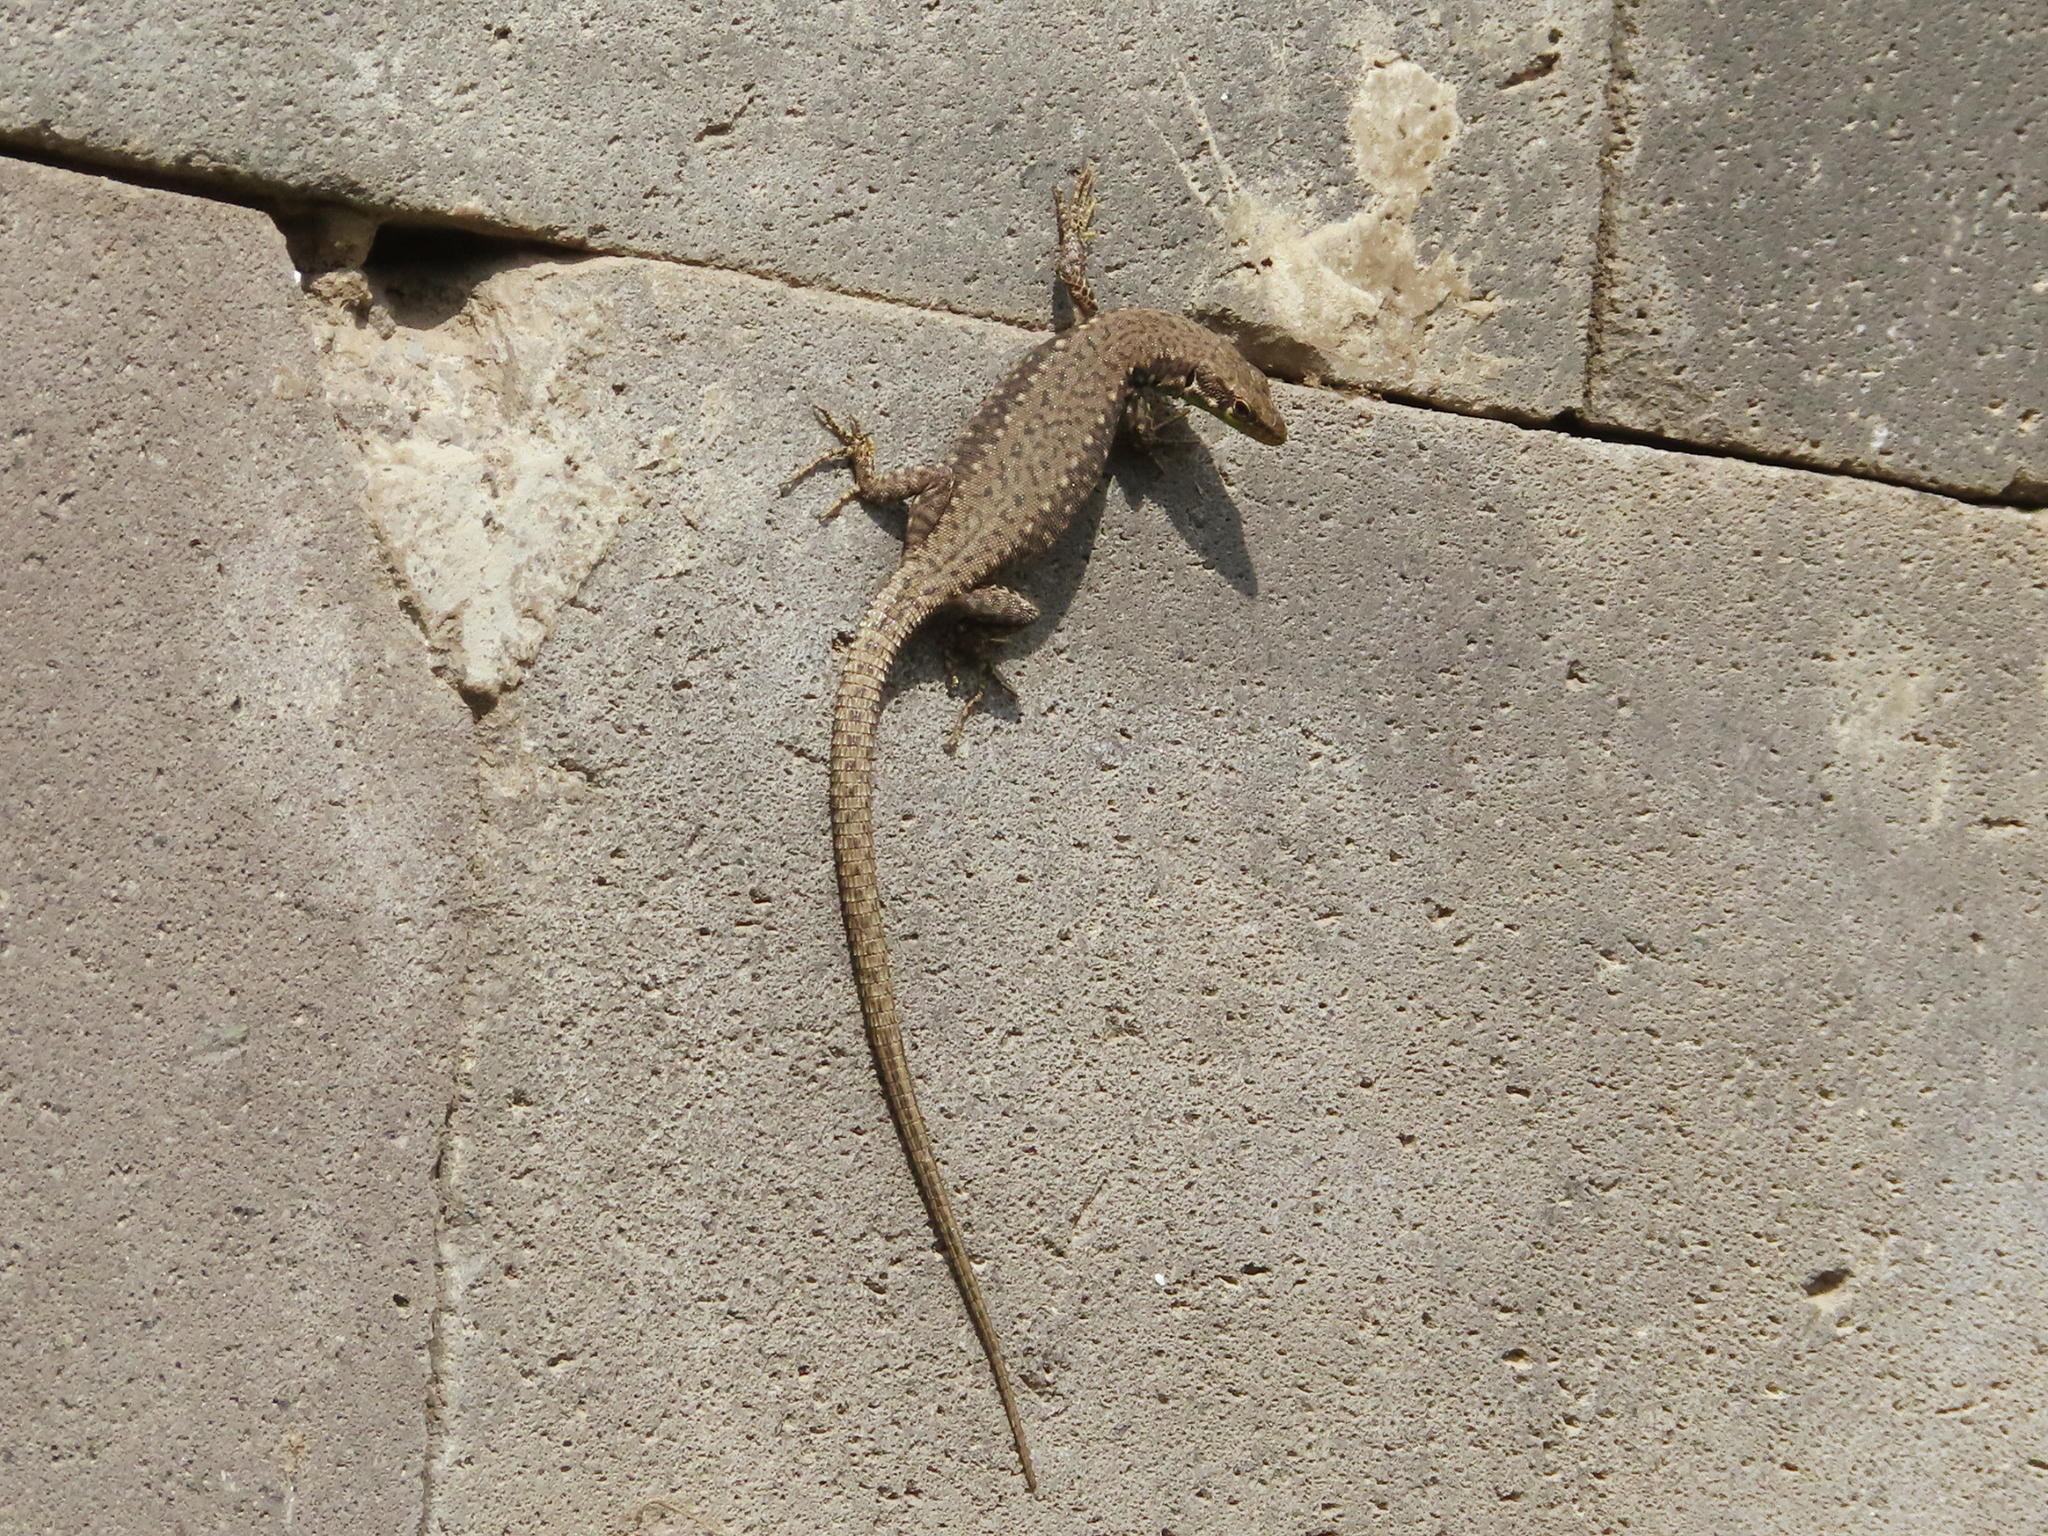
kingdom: Animalia
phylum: Chordata
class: Squamata
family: Lacertidae
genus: Darevskia
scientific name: Darevskia raddei
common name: Radde's lizard
